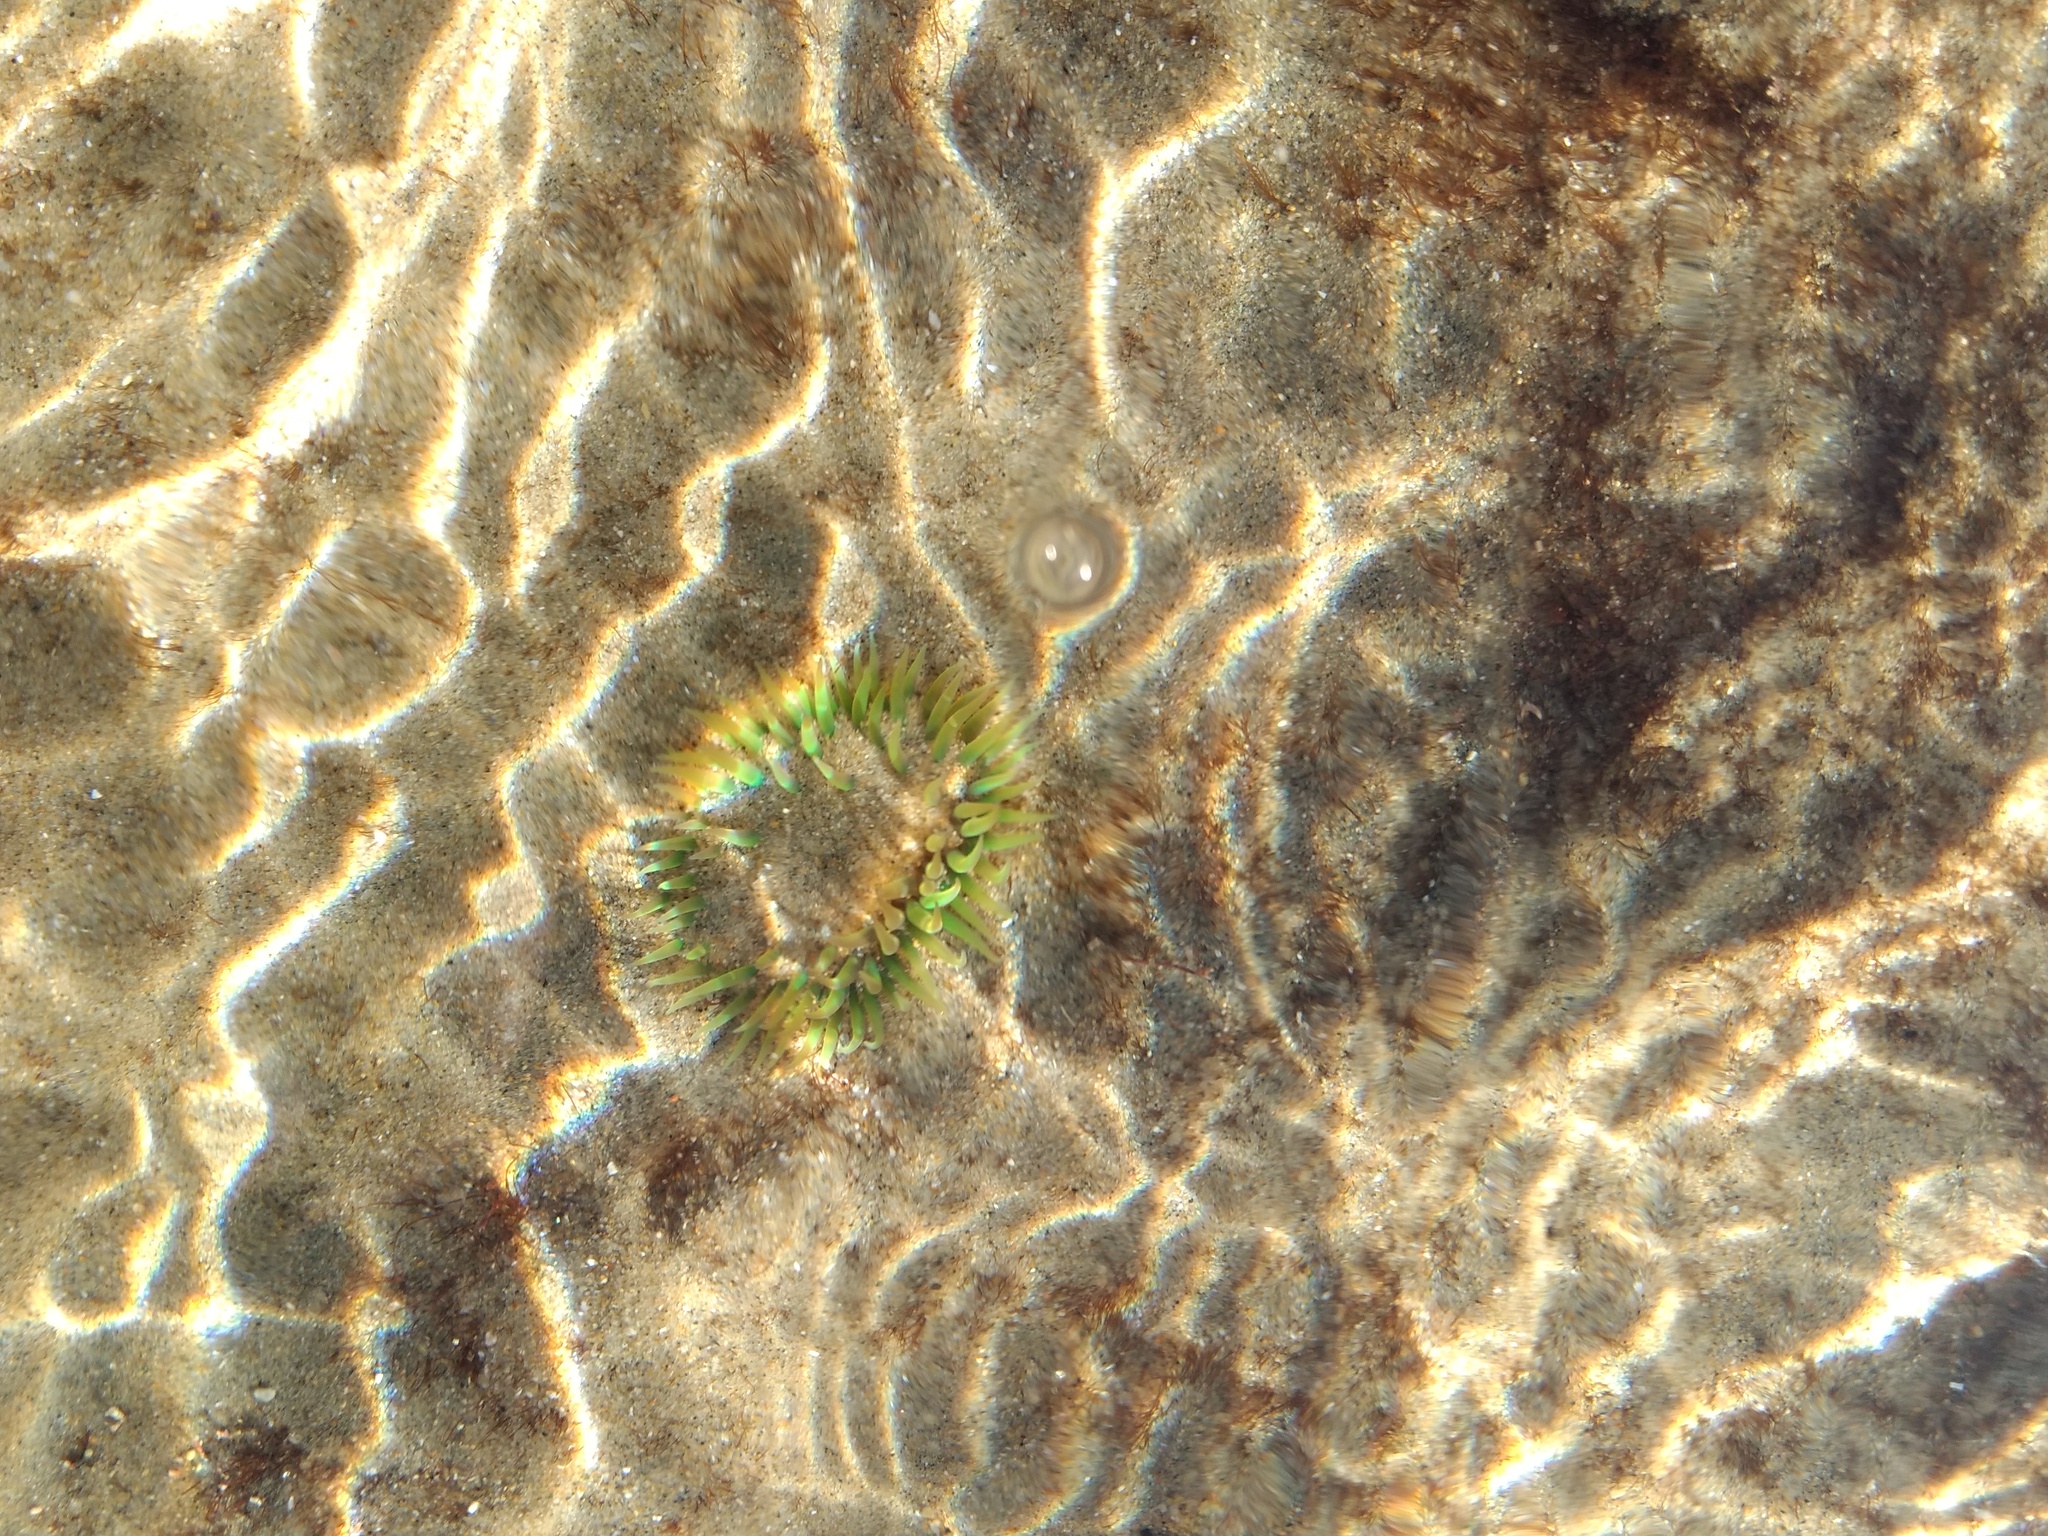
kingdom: Animalia
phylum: Cnidaria
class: Anthozoa
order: Actiniaria
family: Actiniidae
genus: Anthopleura
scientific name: Anthopleura sola
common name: Sun anemone
